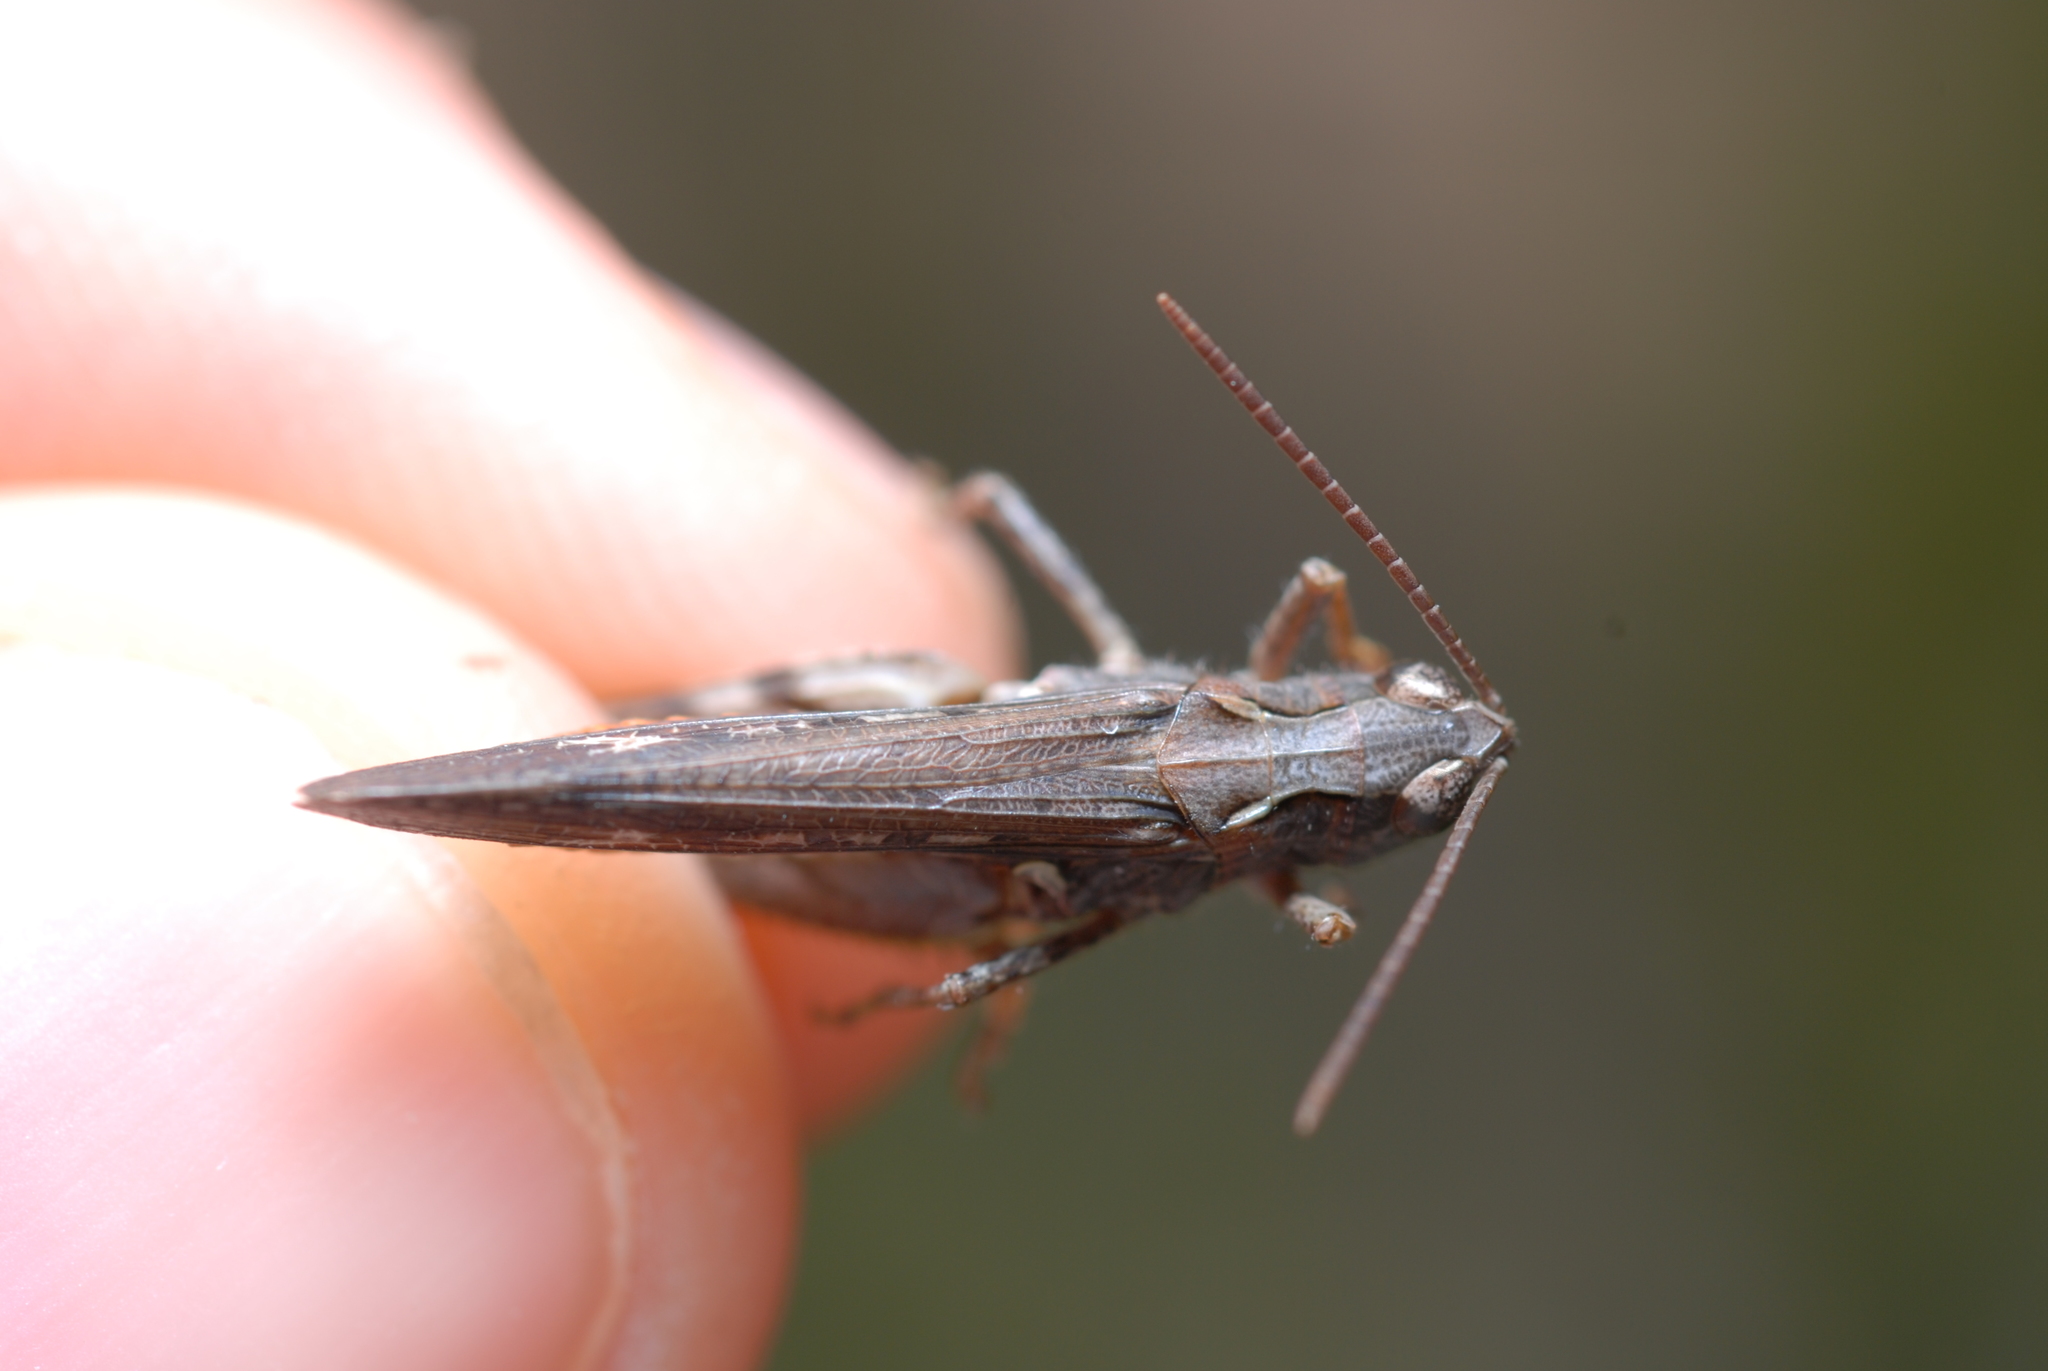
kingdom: Animalia
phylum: Arthropoda
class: Insecta
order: Orthoptera
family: Acrididae
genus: Omocestus
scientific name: Omocestus raymondi
